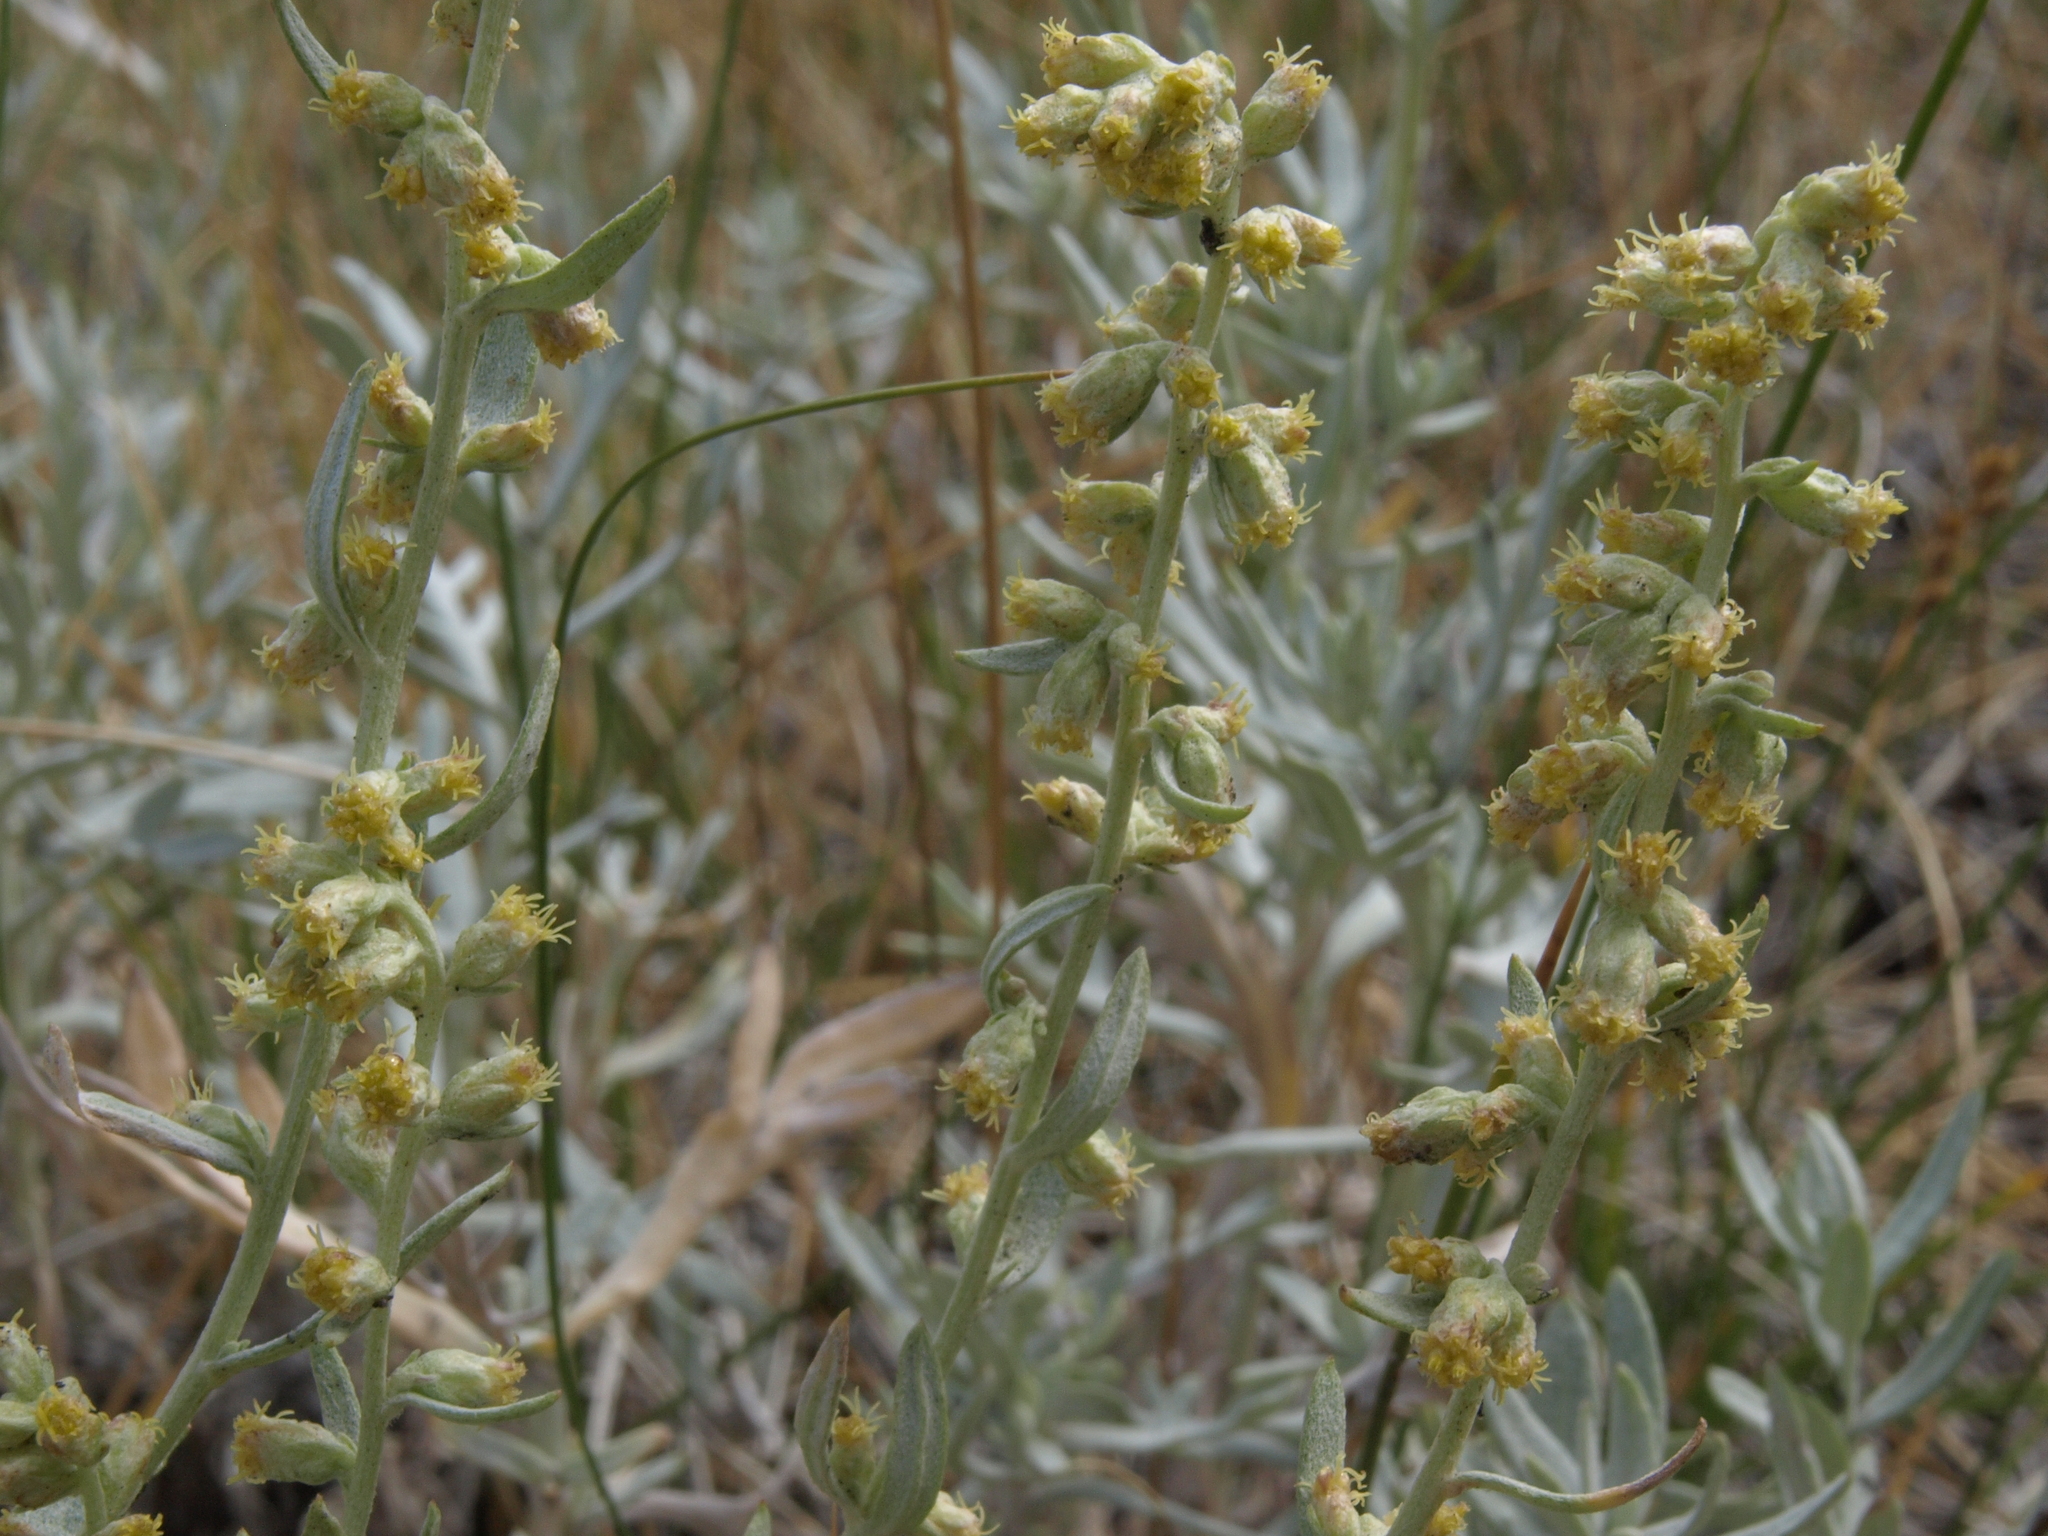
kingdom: Plantae
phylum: Tracheophyta
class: Magnoliopsida
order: Asterales
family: Asteraceae
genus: Artemisia
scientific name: Artemisia ludoviciana
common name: Western mugwort
